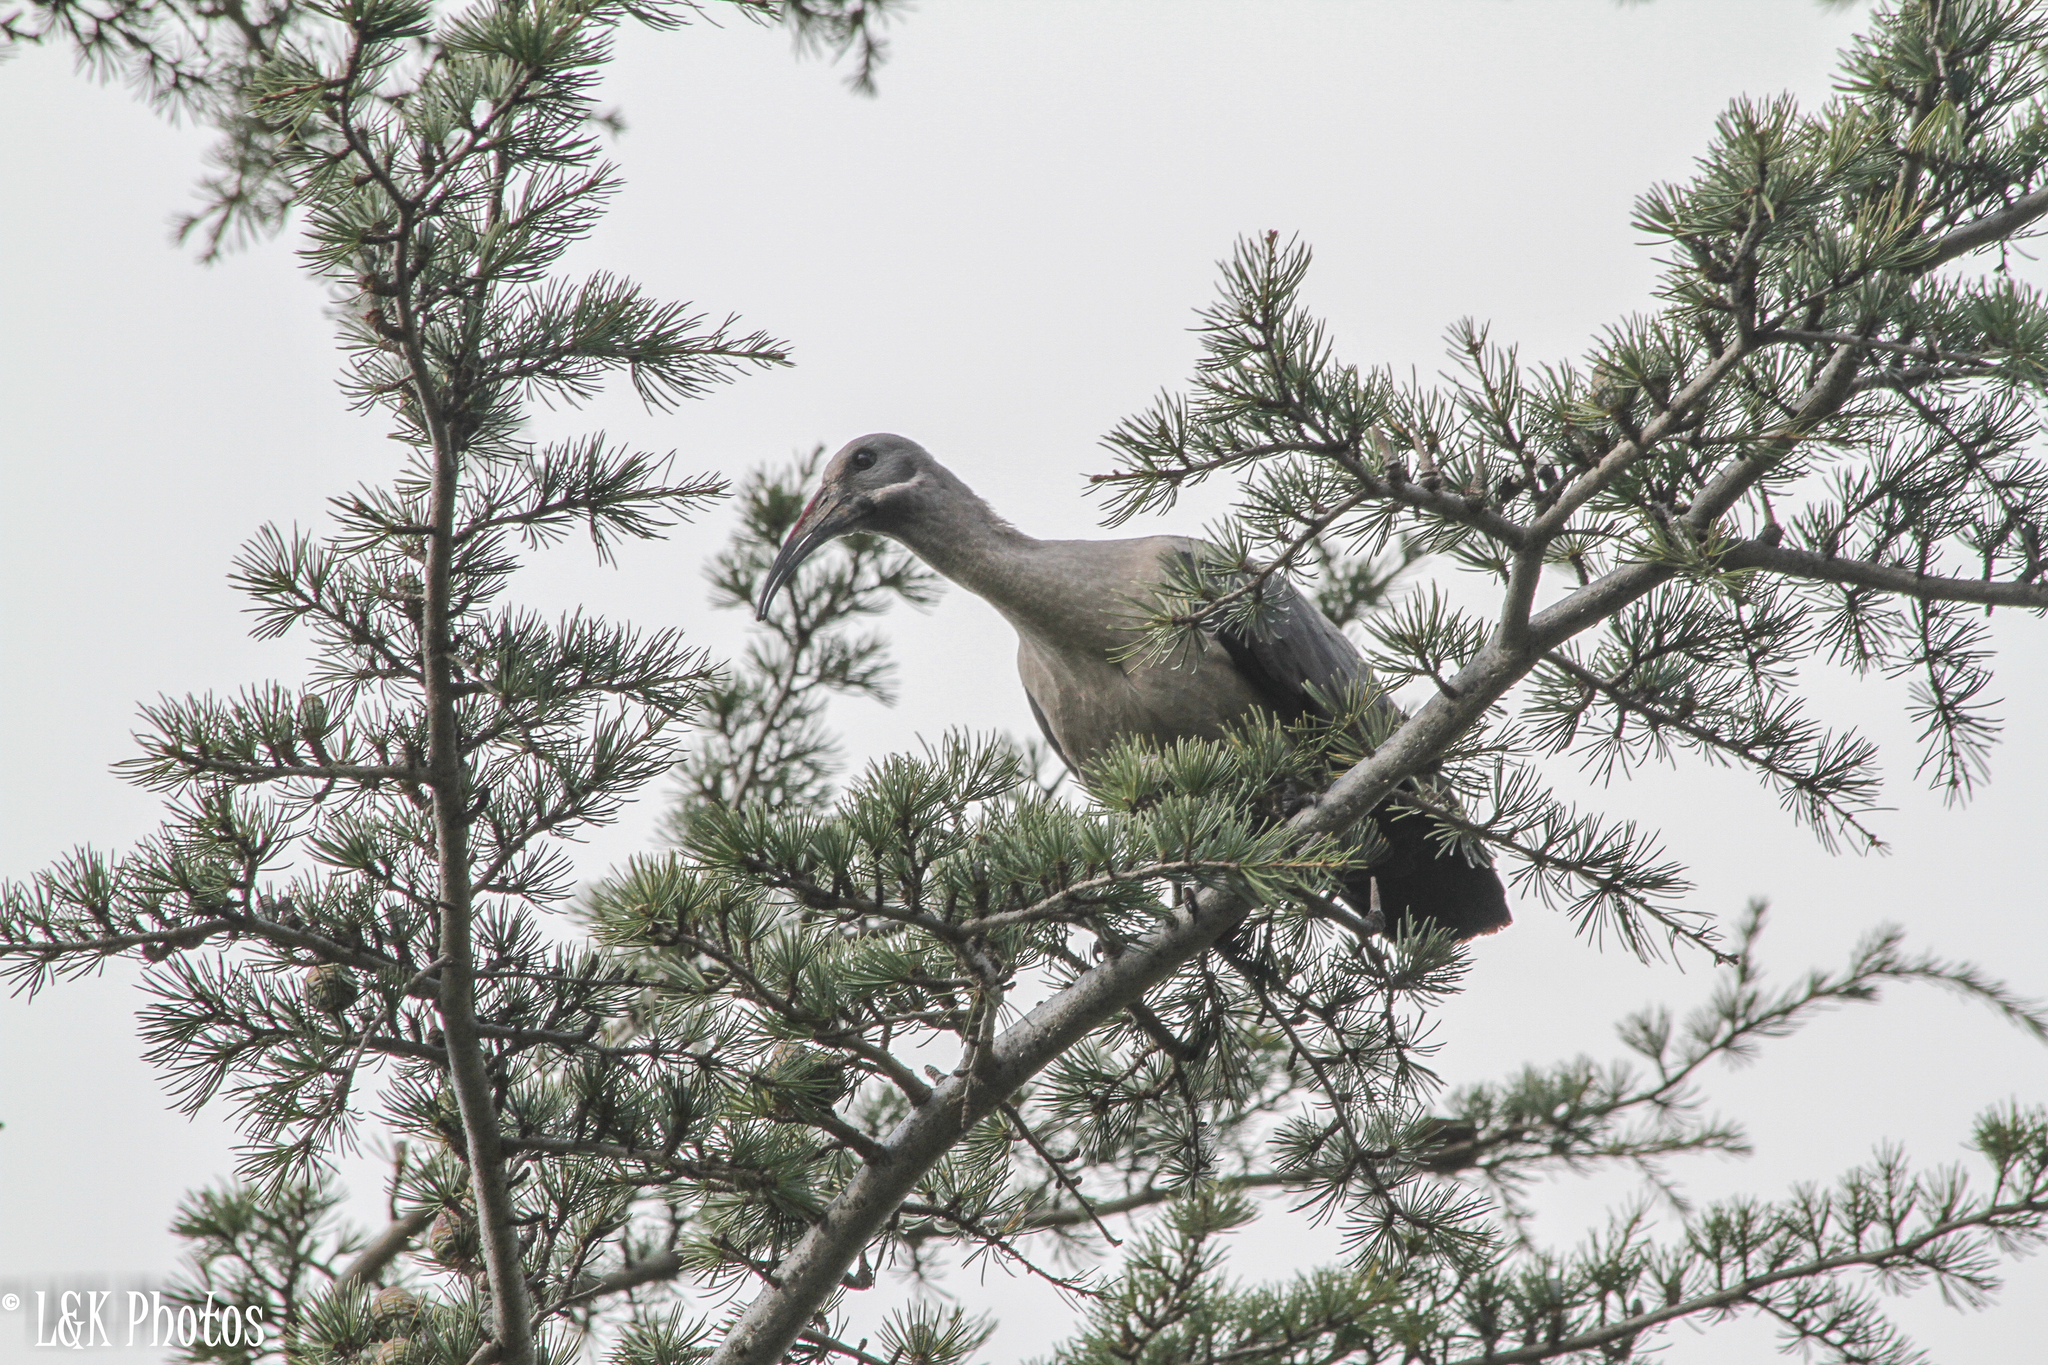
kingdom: Animalia
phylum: Chordata
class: Aves
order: Pelecaniformes
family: Threskiornithidae
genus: Bostrychia
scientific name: Bostrychia hagedash
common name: Hadada ibis
